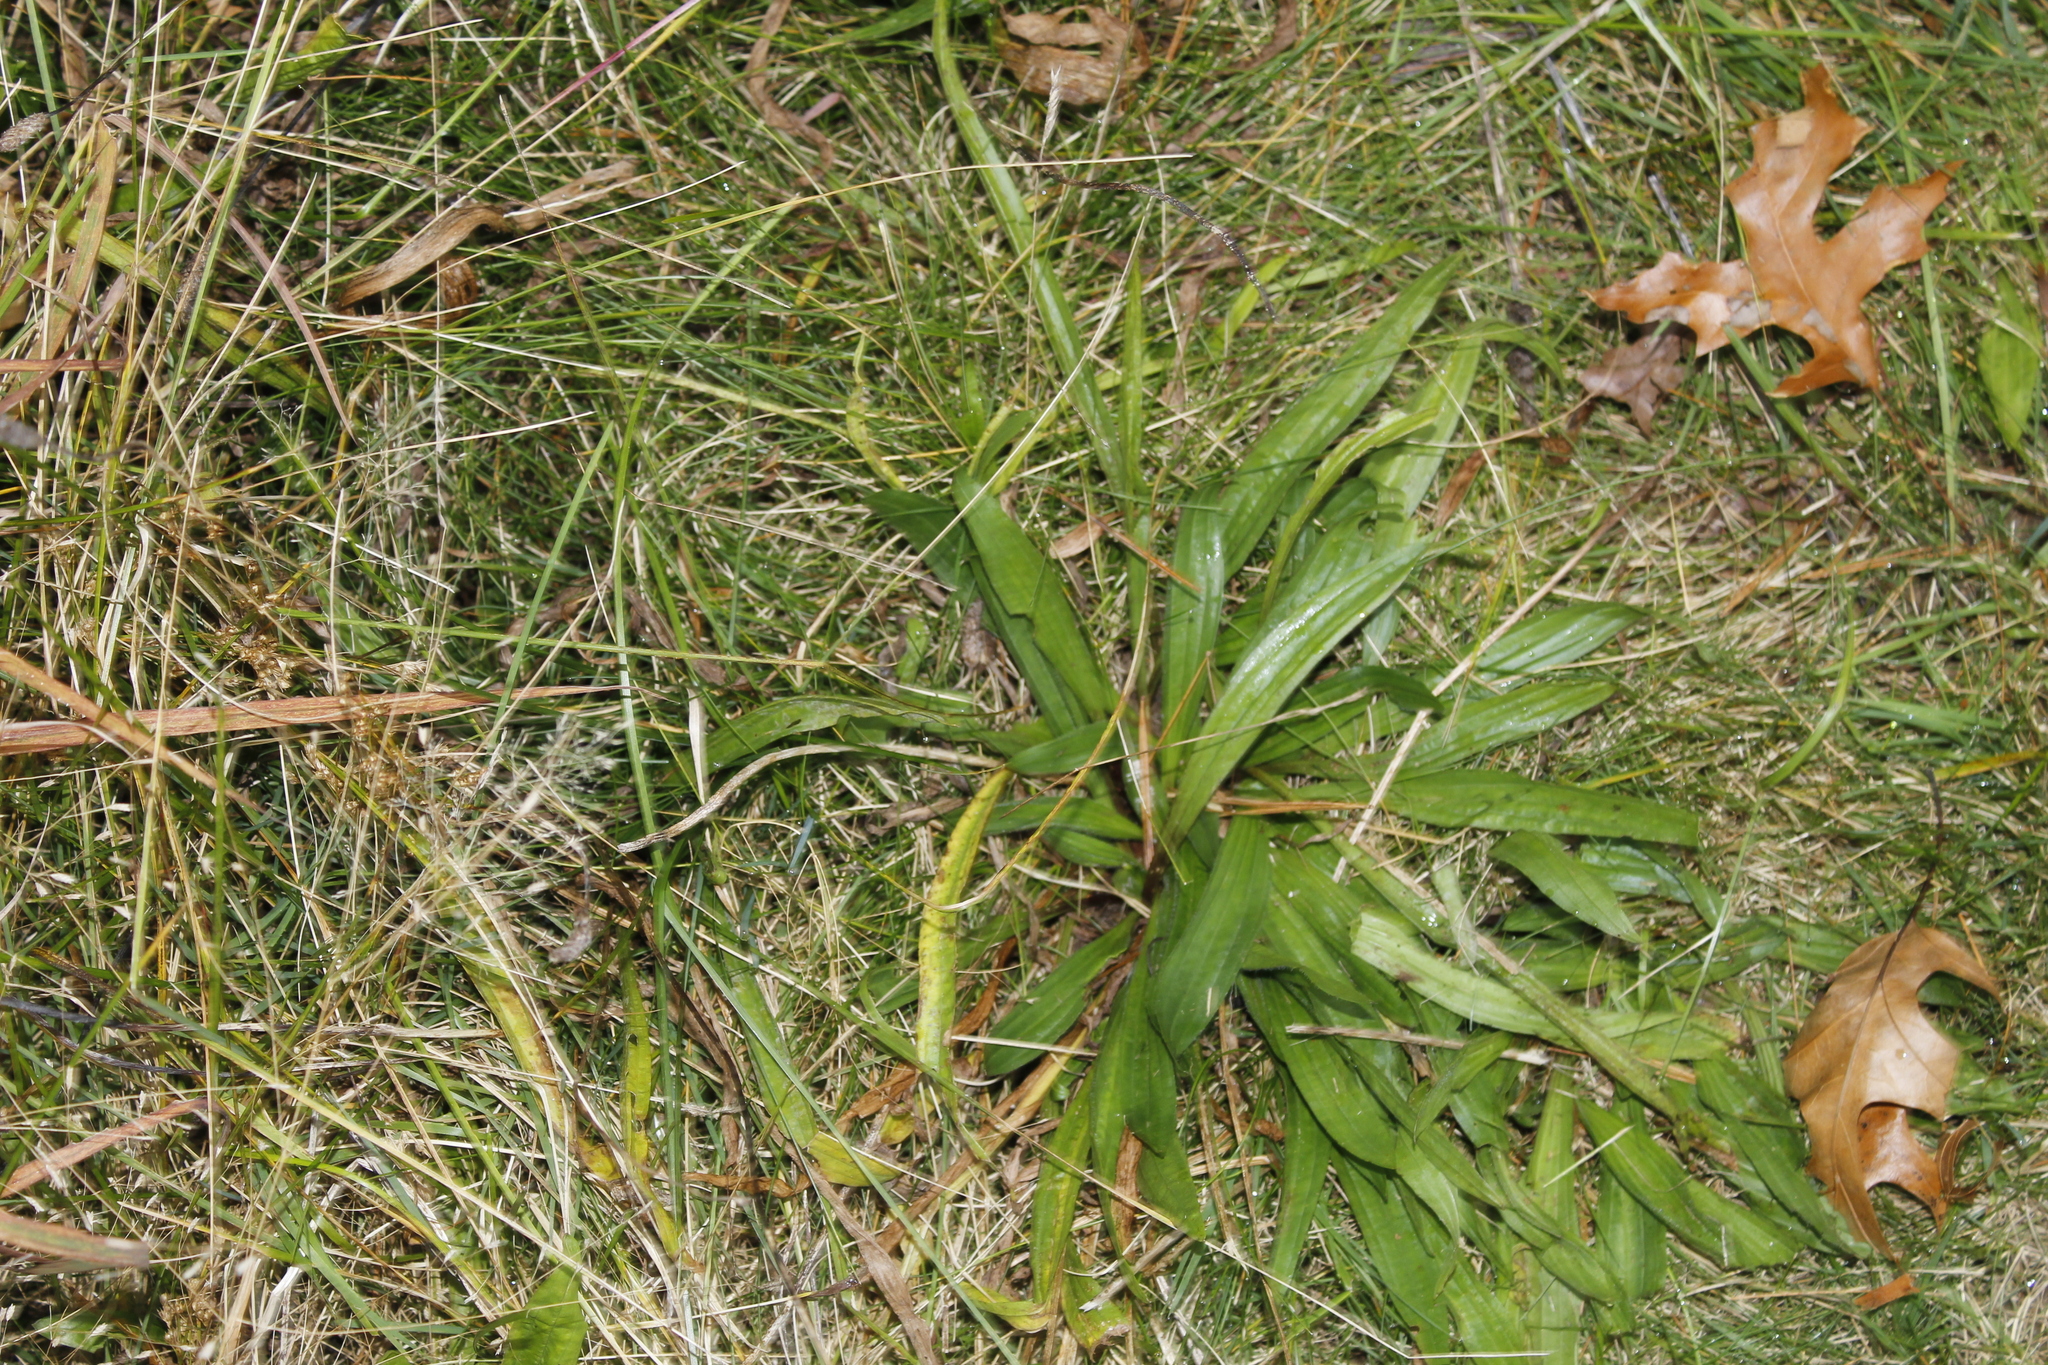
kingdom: Plantae
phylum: Tracheophyta
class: Magnoliopsida
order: Lamiales
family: Plantaginaceae
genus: Plantago
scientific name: Plantago lanceolata
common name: Ribwort plantain
